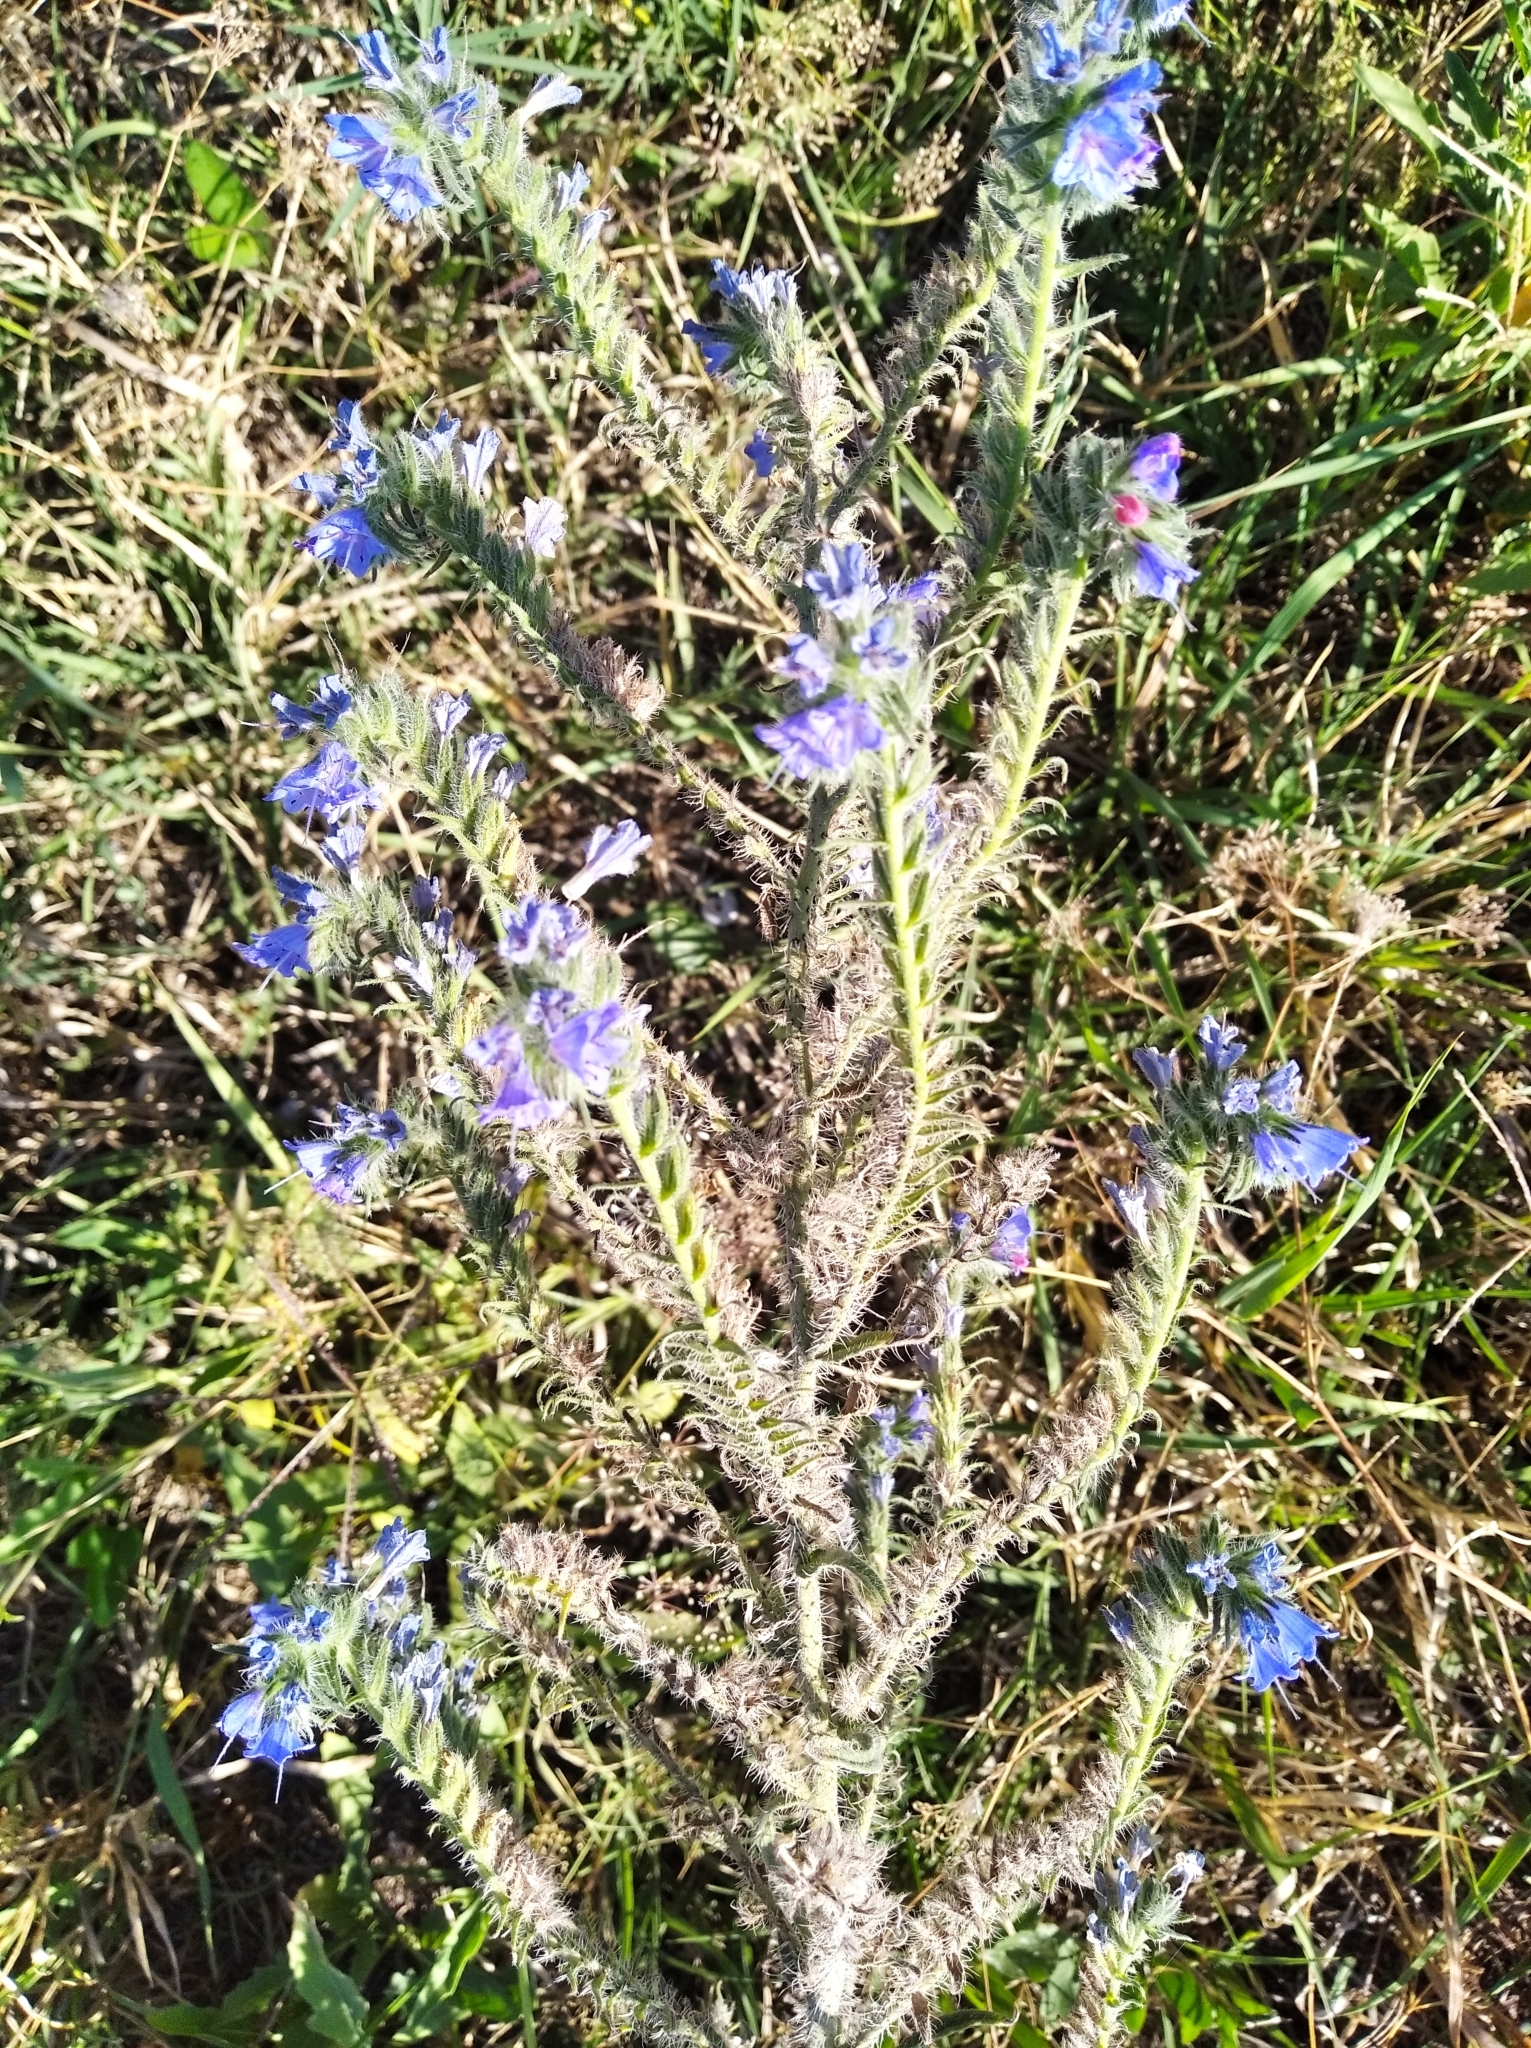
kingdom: Plantae
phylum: Tracheophyta
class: Magnoliopsida
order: Boraginales
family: Boraginaceae
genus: Echium
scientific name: Echium vulgare
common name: Common viper's bugloss
